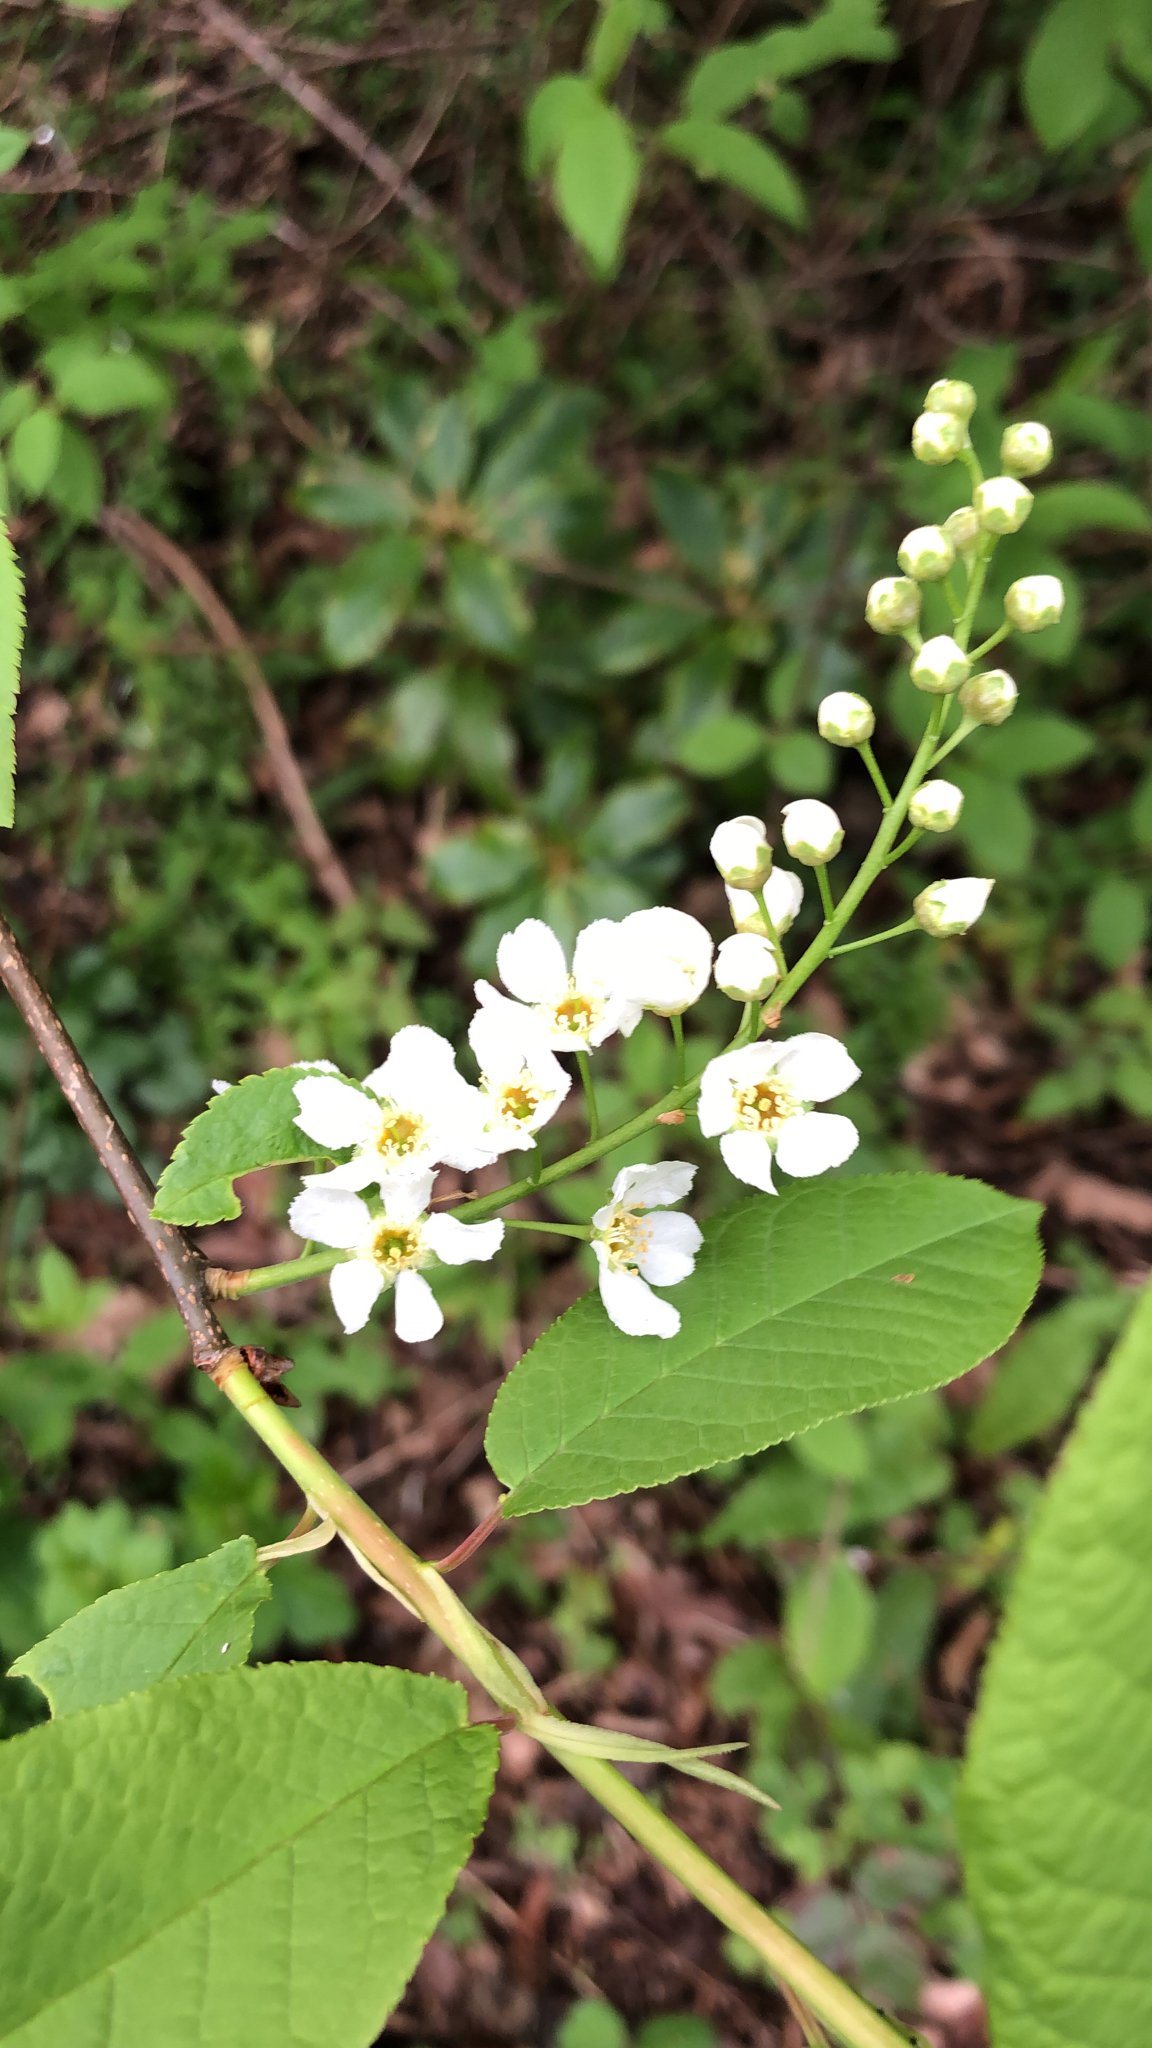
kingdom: Plantae
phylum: Tracheophyta
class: Magnoliopsida
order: Rosales
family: Rosaceae
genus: Prunus
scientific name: Prunus padus
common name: Bird cherry
